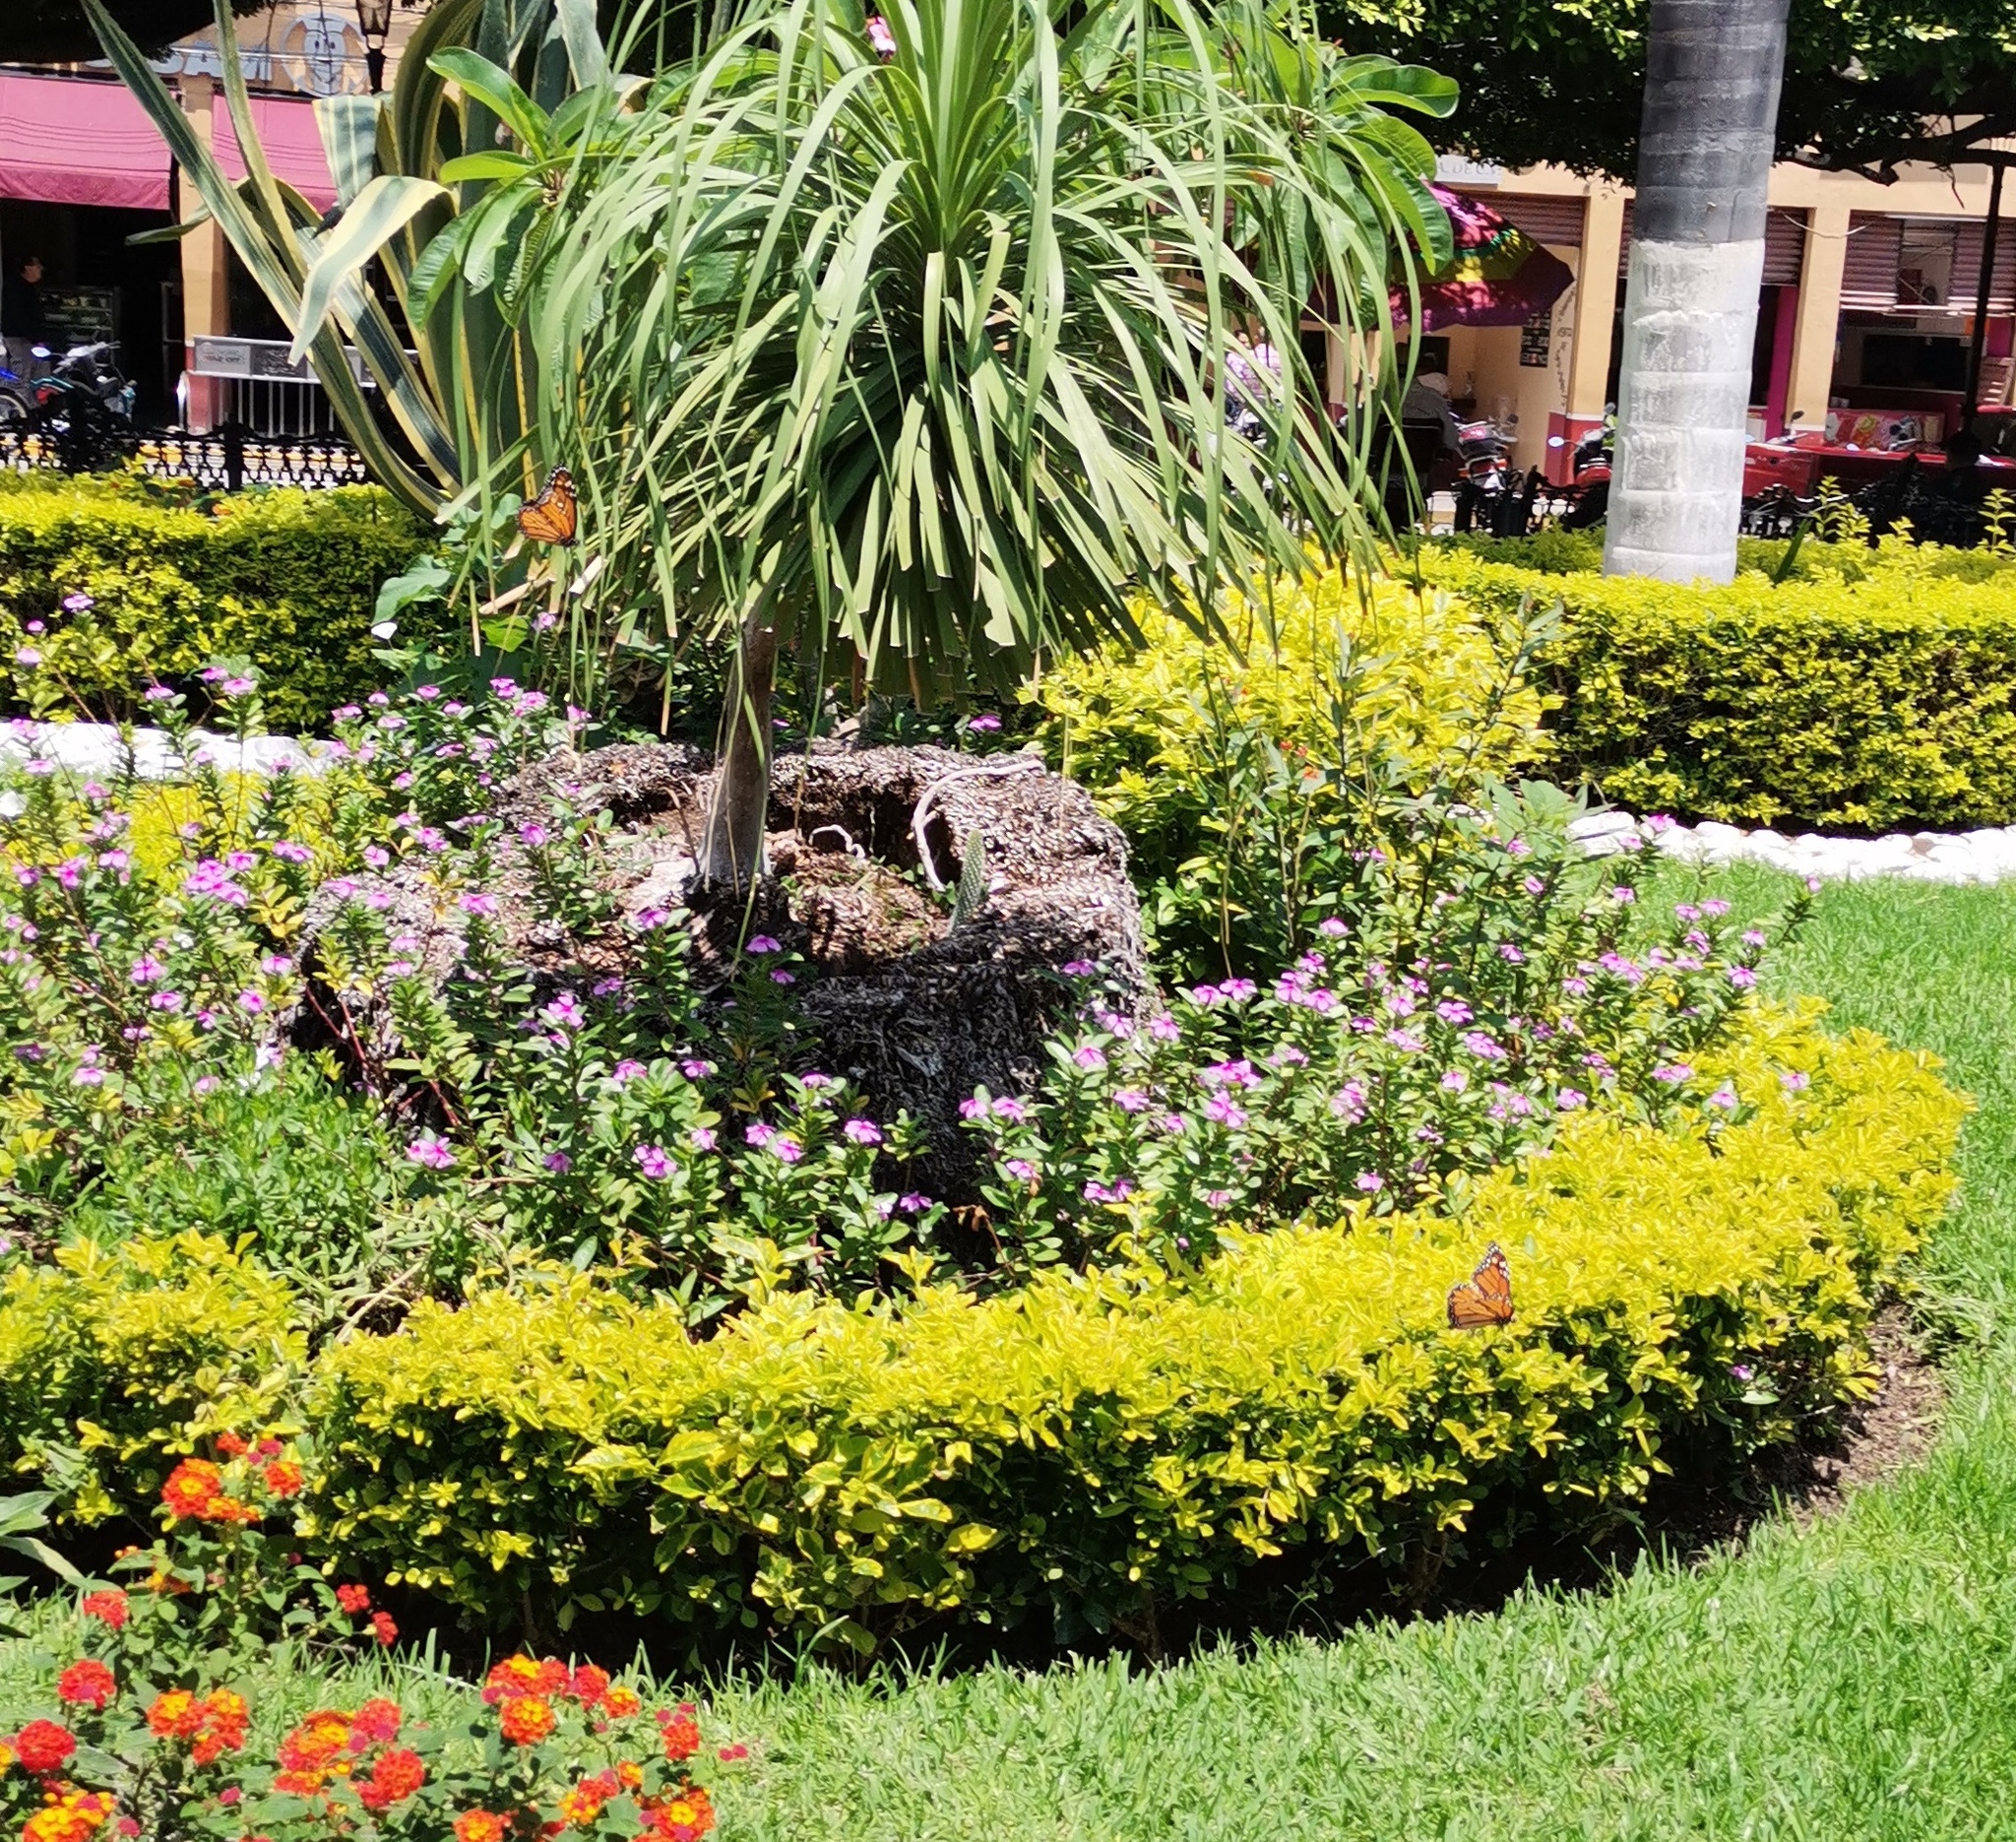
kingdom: Animalia
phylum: Arthropoda
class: Insecta
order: Lepidoptera
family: Nymphalidae
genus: Danaus
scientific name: Danaus plexippus
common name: Monarch
